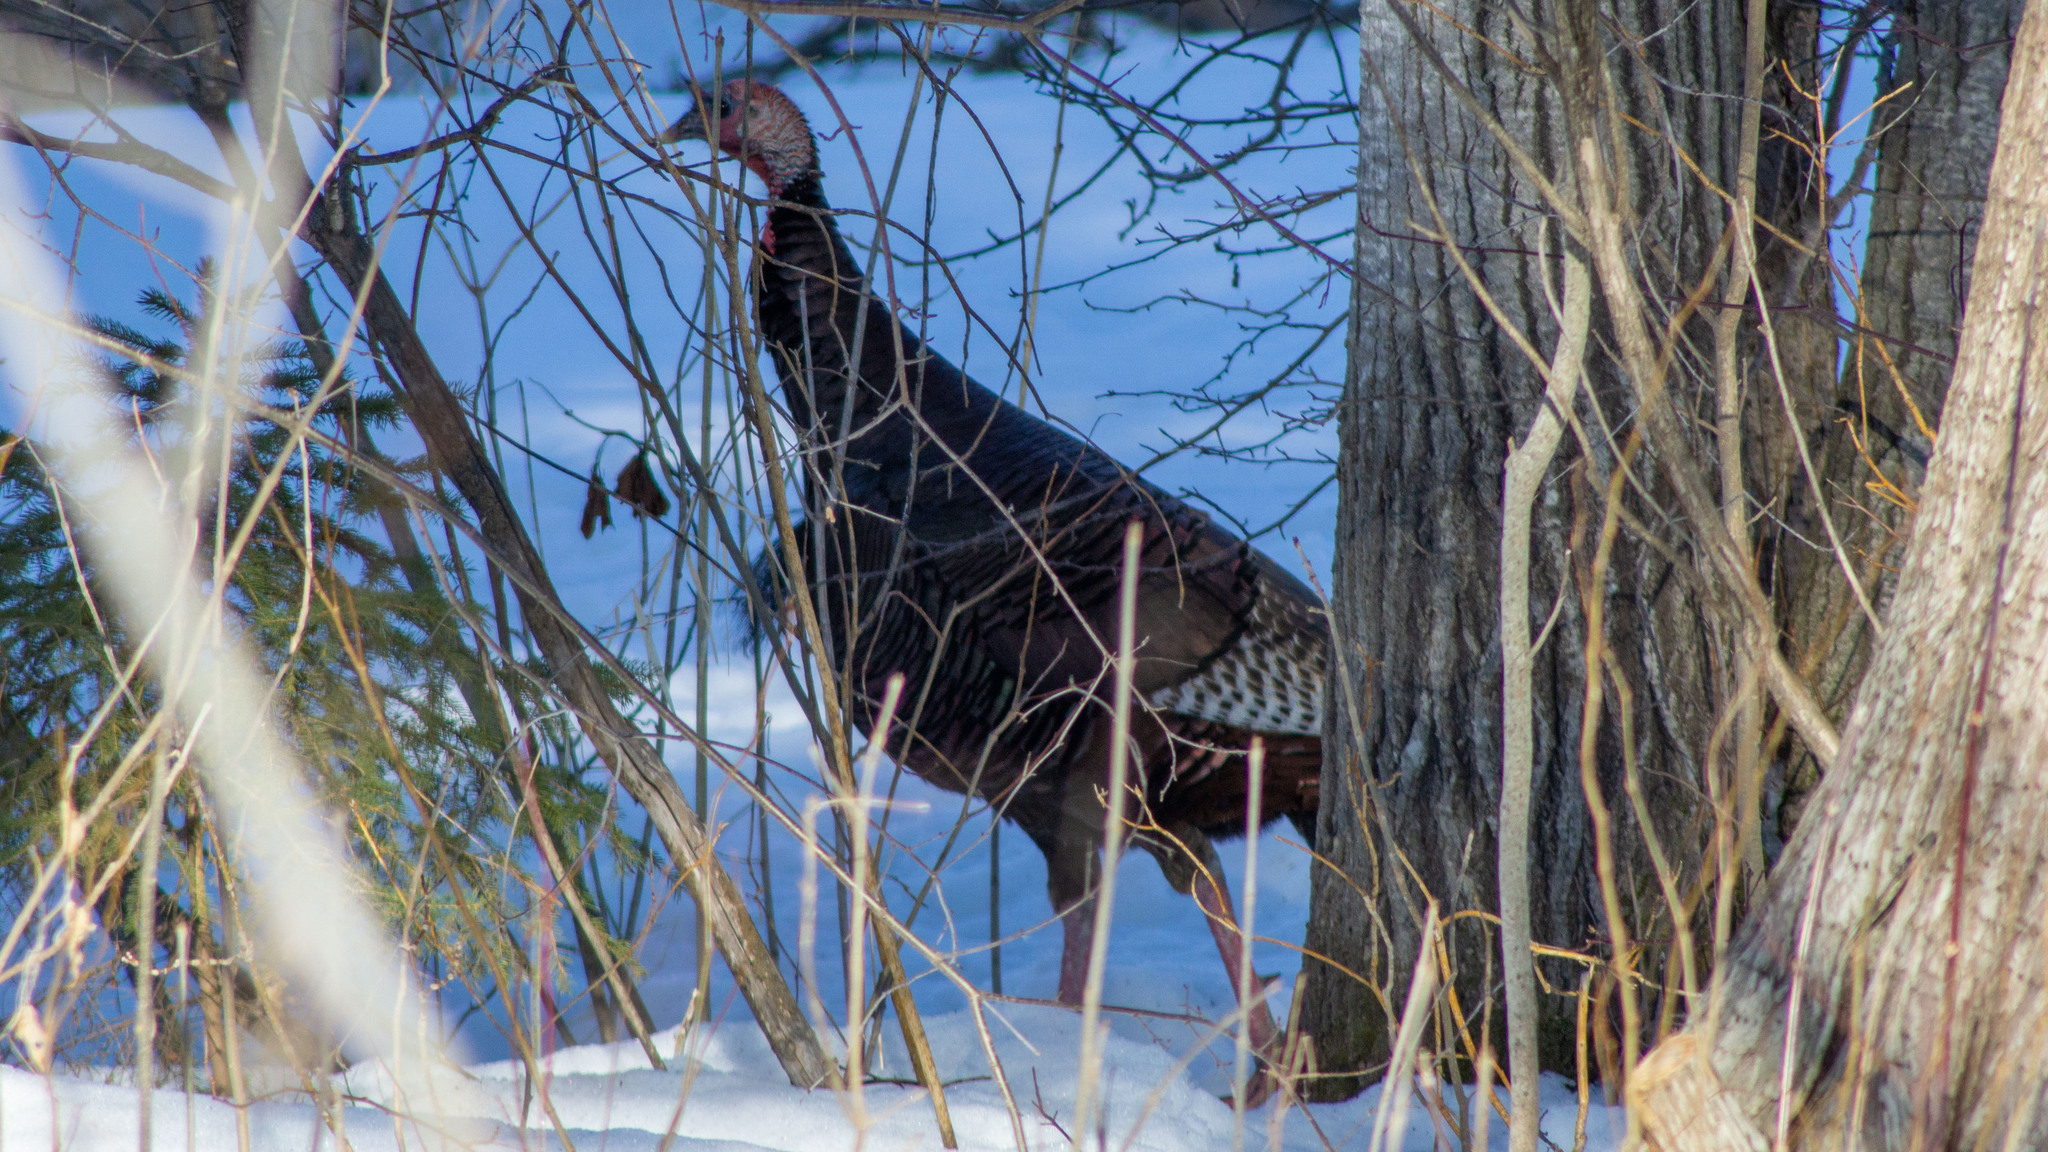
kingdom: Animalia
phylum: Chordata
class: Aves
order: Galliformes
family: Phasianidae
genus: Meleagris
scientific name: Meleagris gallopavo
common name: Wild turkey
